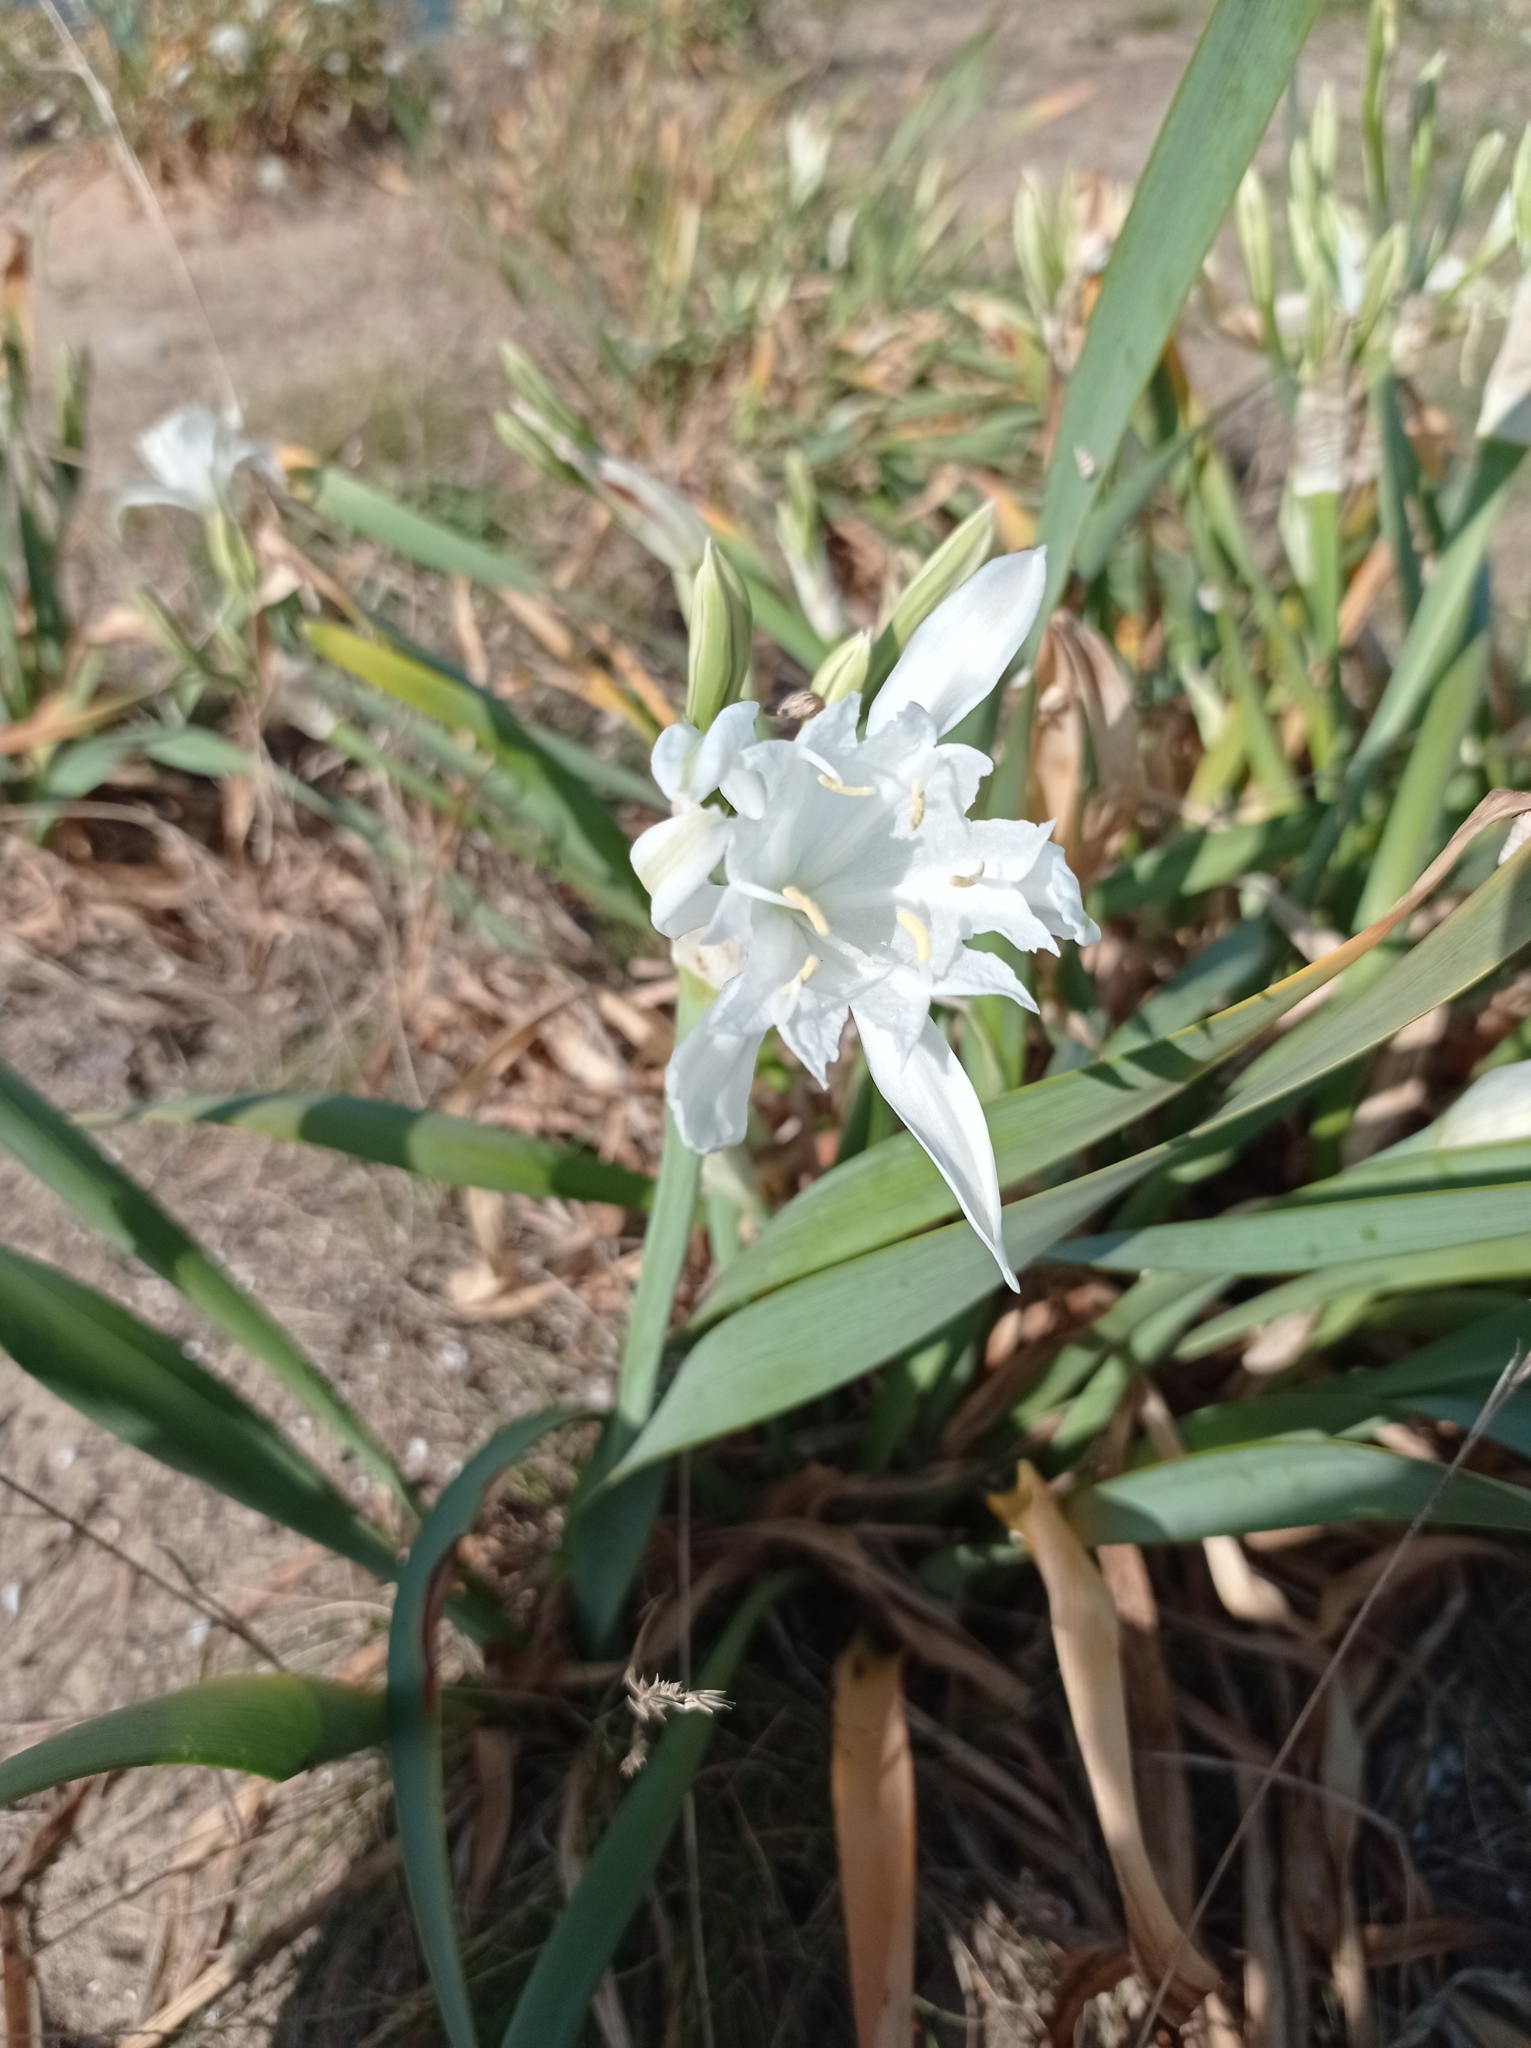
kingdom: Plantae
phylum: Tracheophyta
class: Liliopsida
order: Asparagales
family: Amaryllidaceae
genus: Pancratium
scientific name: Pancratium maritimum
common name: Sea-daffodil
